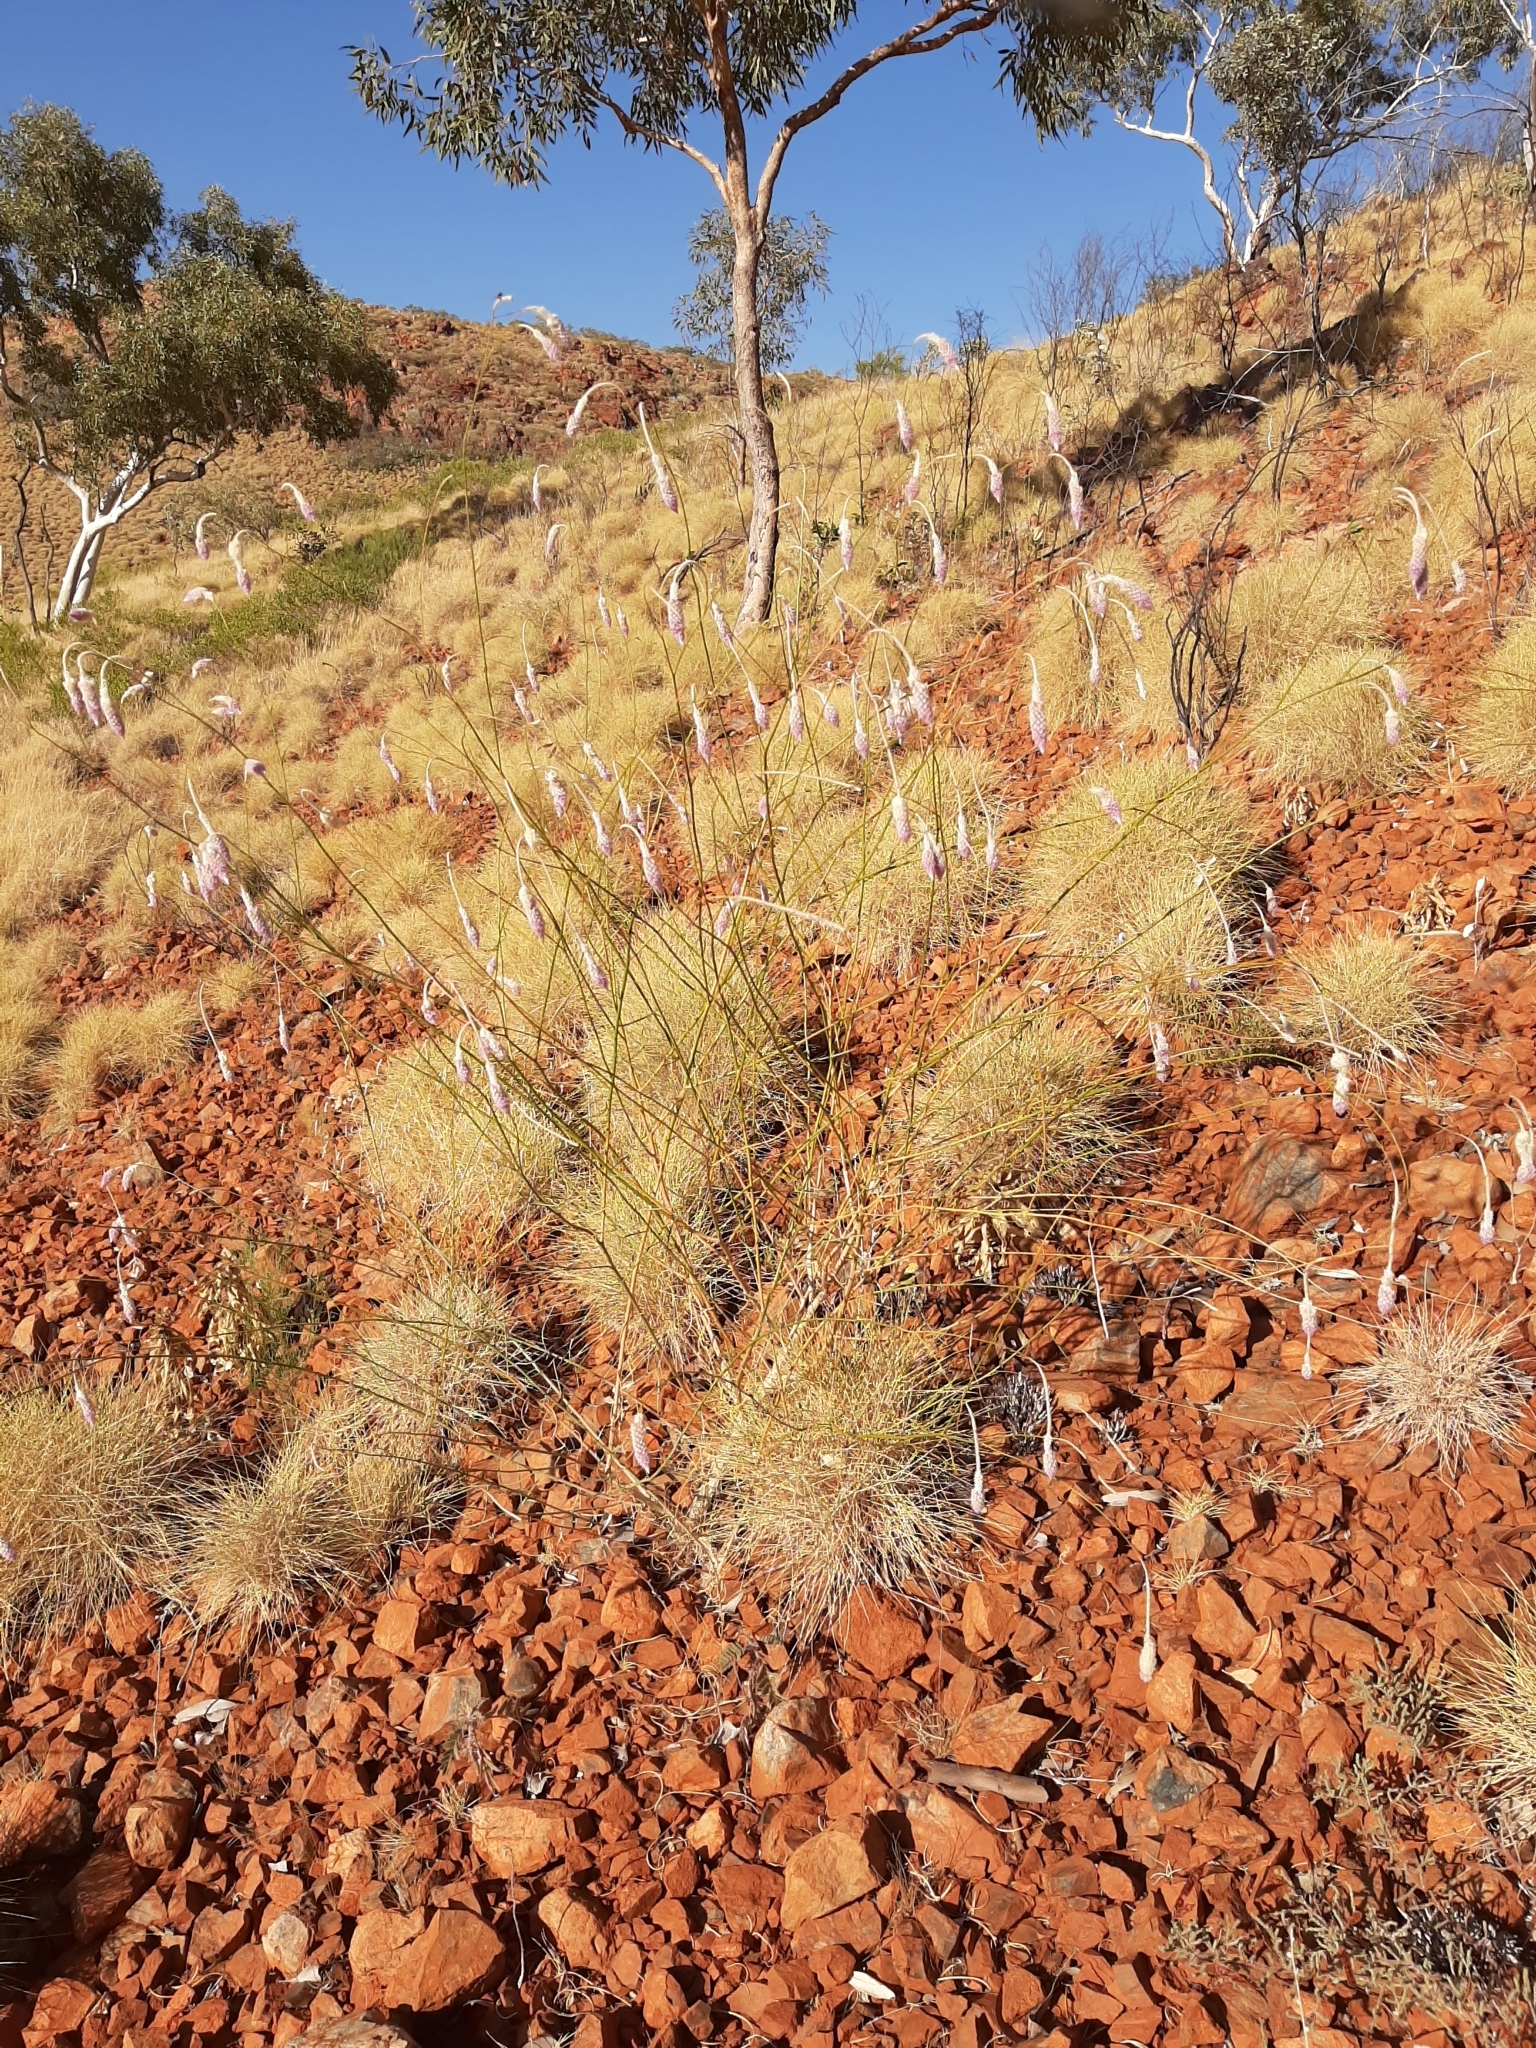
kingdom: Plantae
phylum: Tracheophyta
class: Magnoliopsida
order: Caryophyllales
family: Amaranthaceae
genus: Ptilotus
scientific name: Ptilotus calostachyus
